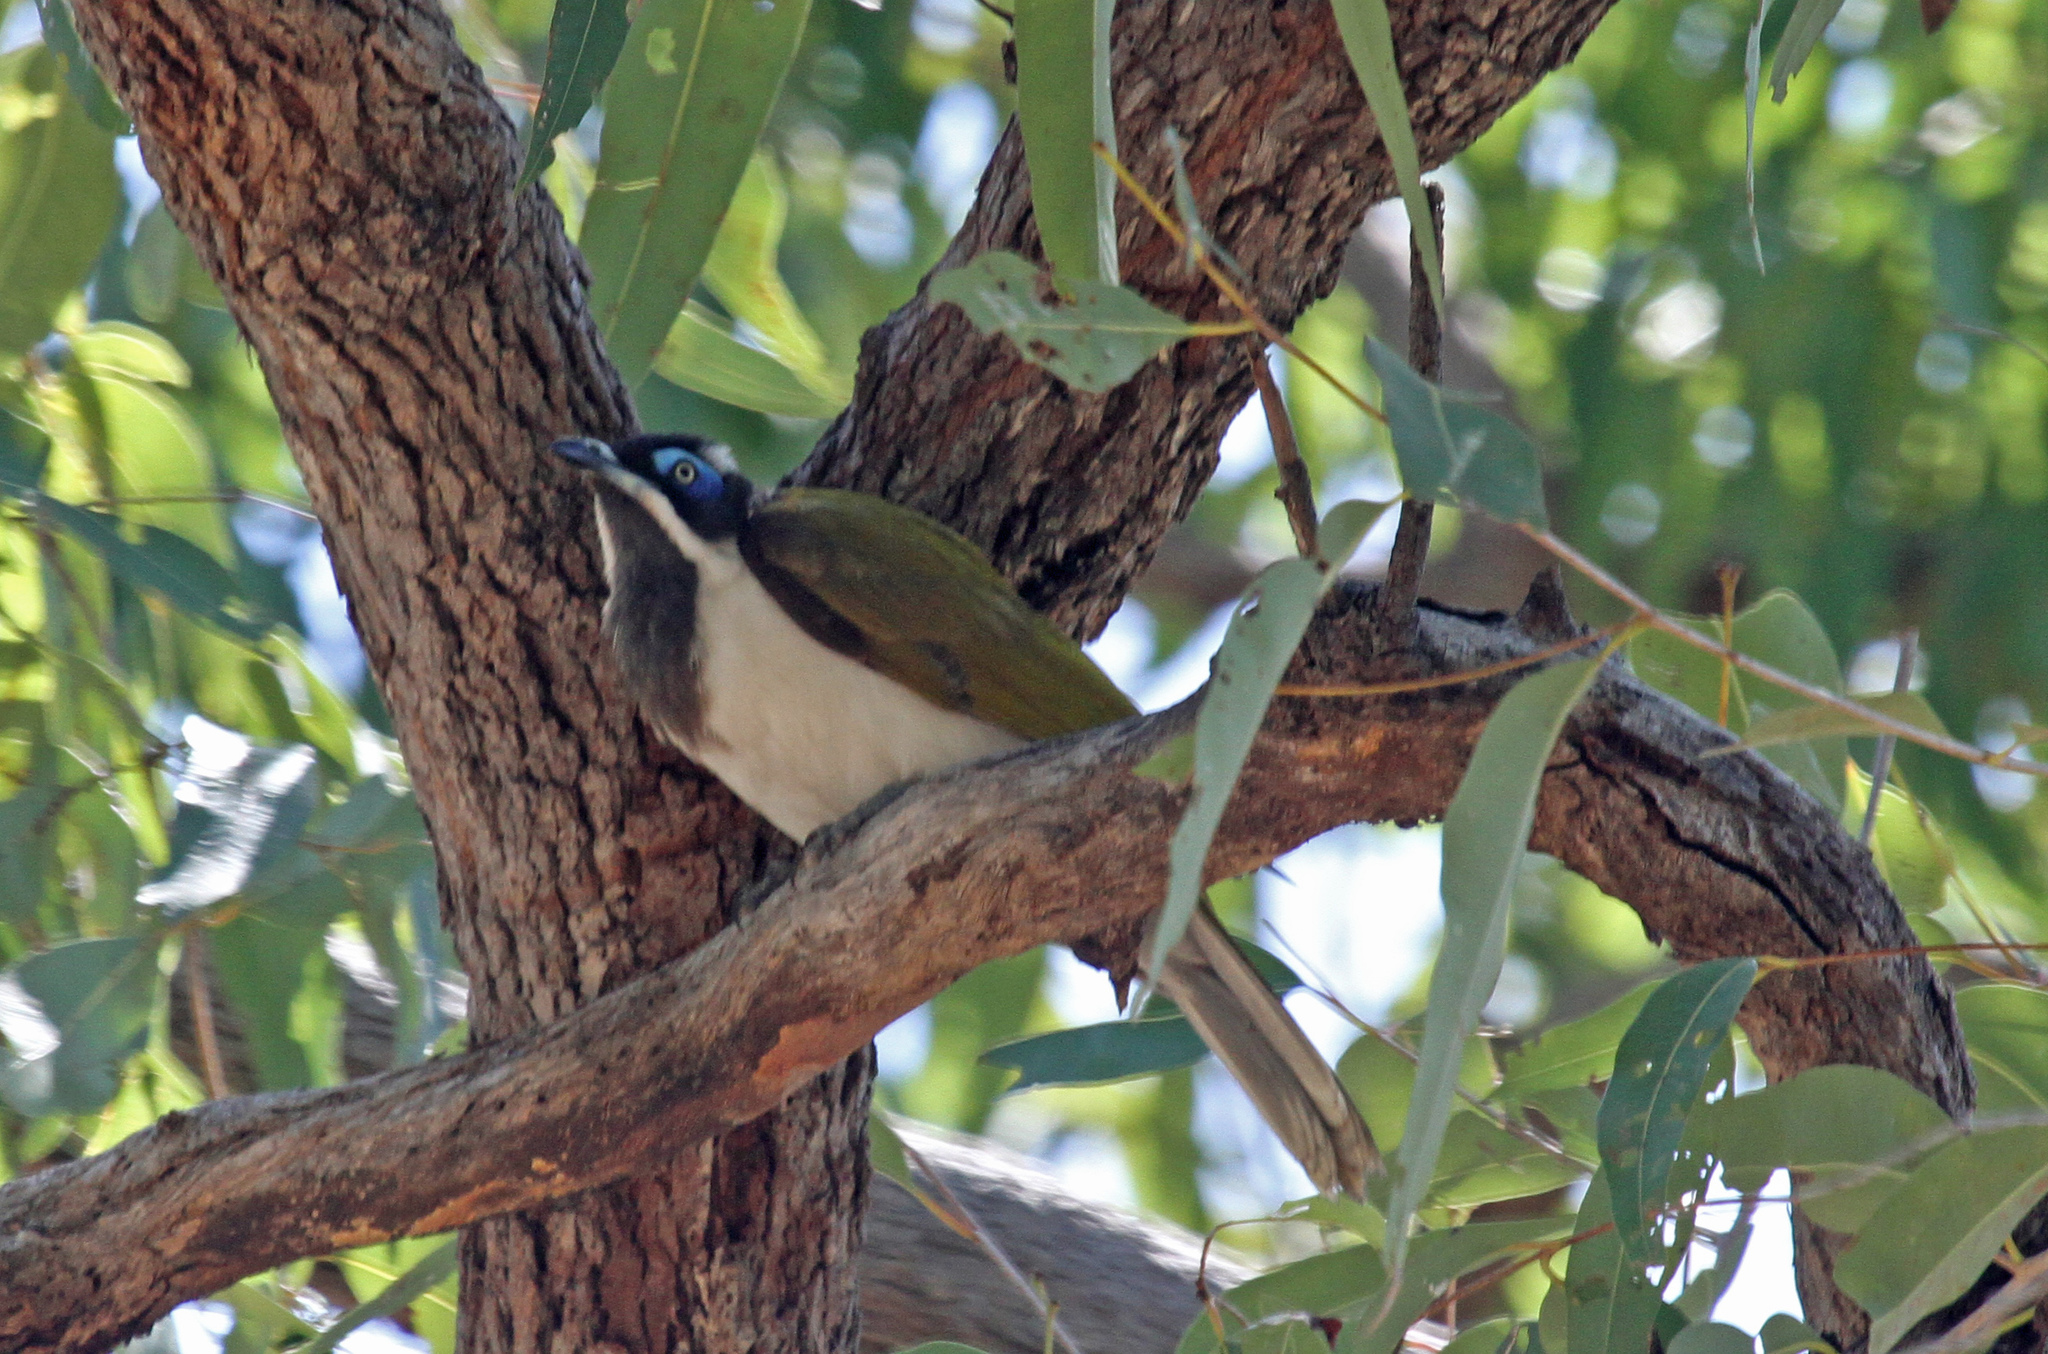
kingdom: Animalia
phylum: Chordata
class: Aves
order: Passeriformes
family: Meliphagidae
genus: Entomyzon
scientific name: Entomyzon cyanotis
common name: Blue-faced honeyeater
